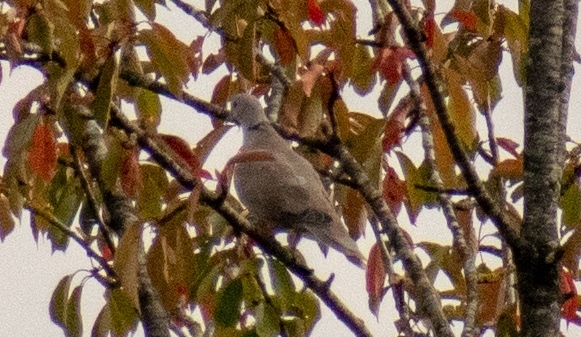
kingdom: Animalia
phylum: Chordata
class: Aves
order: Columbiformes
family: Columbidae
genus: Streptopelia
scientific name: Streptopelia decaocto
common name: Eurasian collared dove
